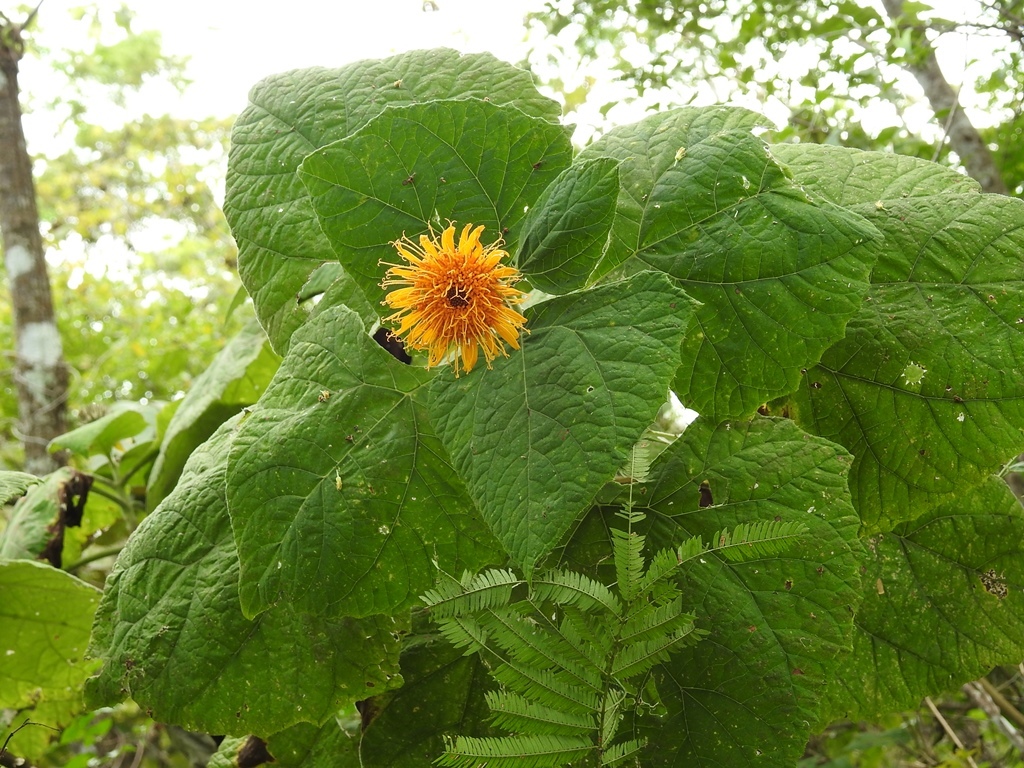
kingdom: Plantae
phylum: Tracheophyta
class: Magnoliopsida
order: Asterales
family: Asteraceae
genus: Sinclairia
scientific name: Sinclairia andrieuxii
